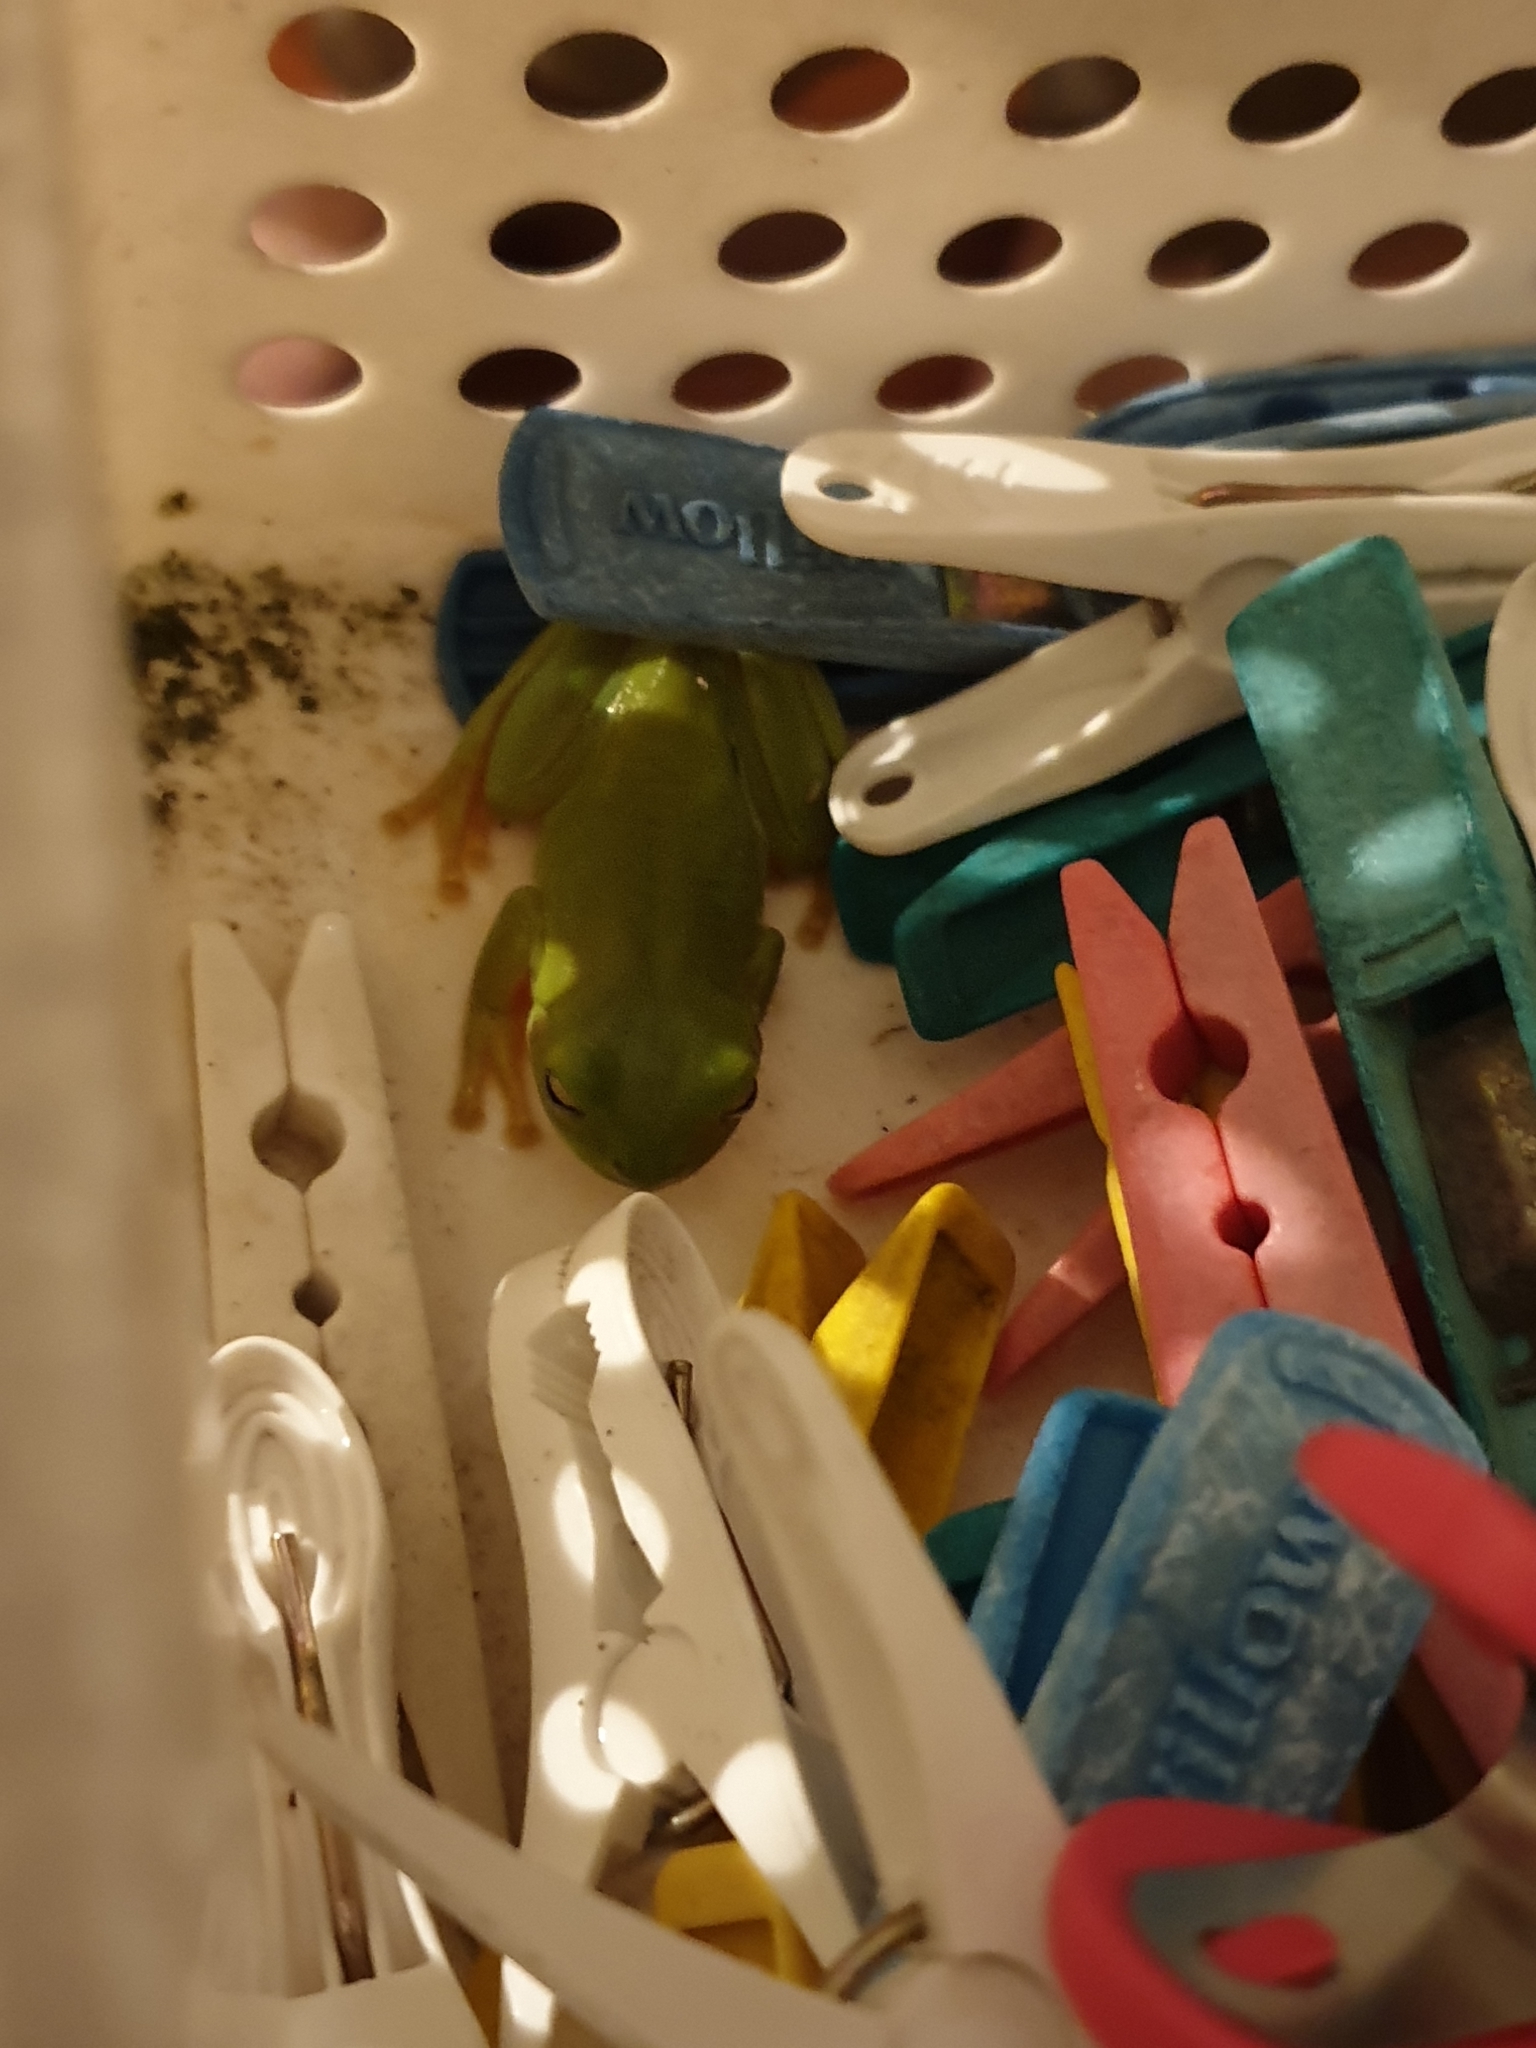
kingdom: Animalia
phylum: Chordata
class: Amphibia
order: Anura
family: Pelodryadidae
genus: Ranoidea
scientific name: Ranoidea caerulea
